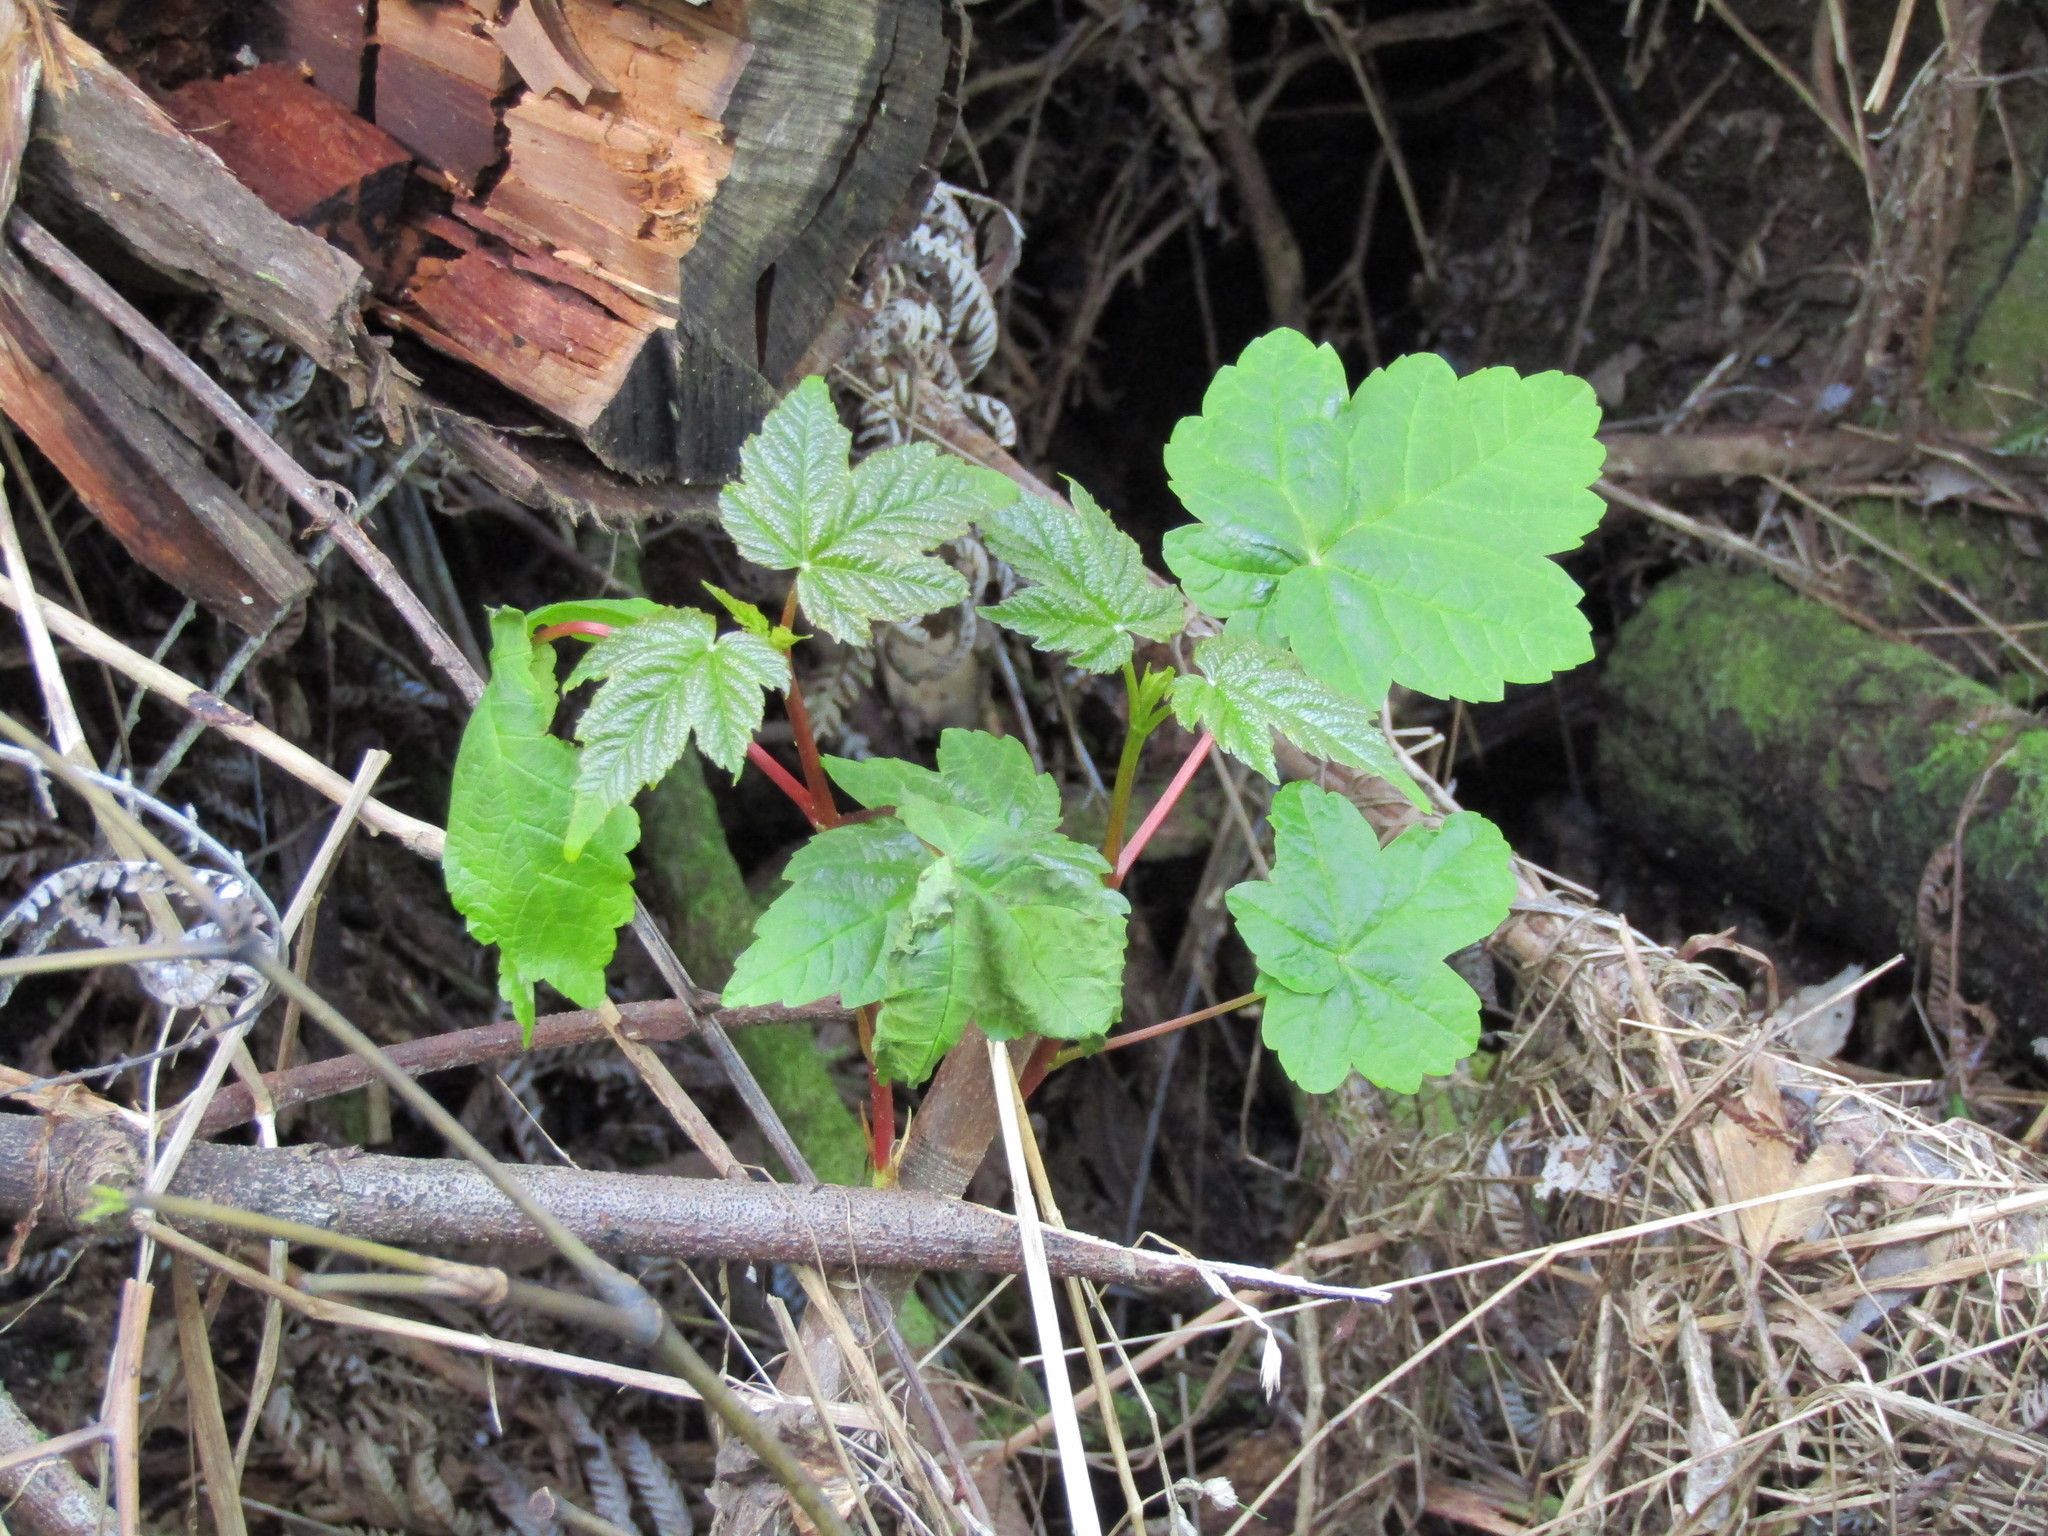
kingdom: Plantae
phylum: Tracheophyta
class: Magnoliopsida
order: Sapindales
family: Sapindaceae
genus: Acer
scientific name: Acer pseudoplatanus
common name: Sycamore
